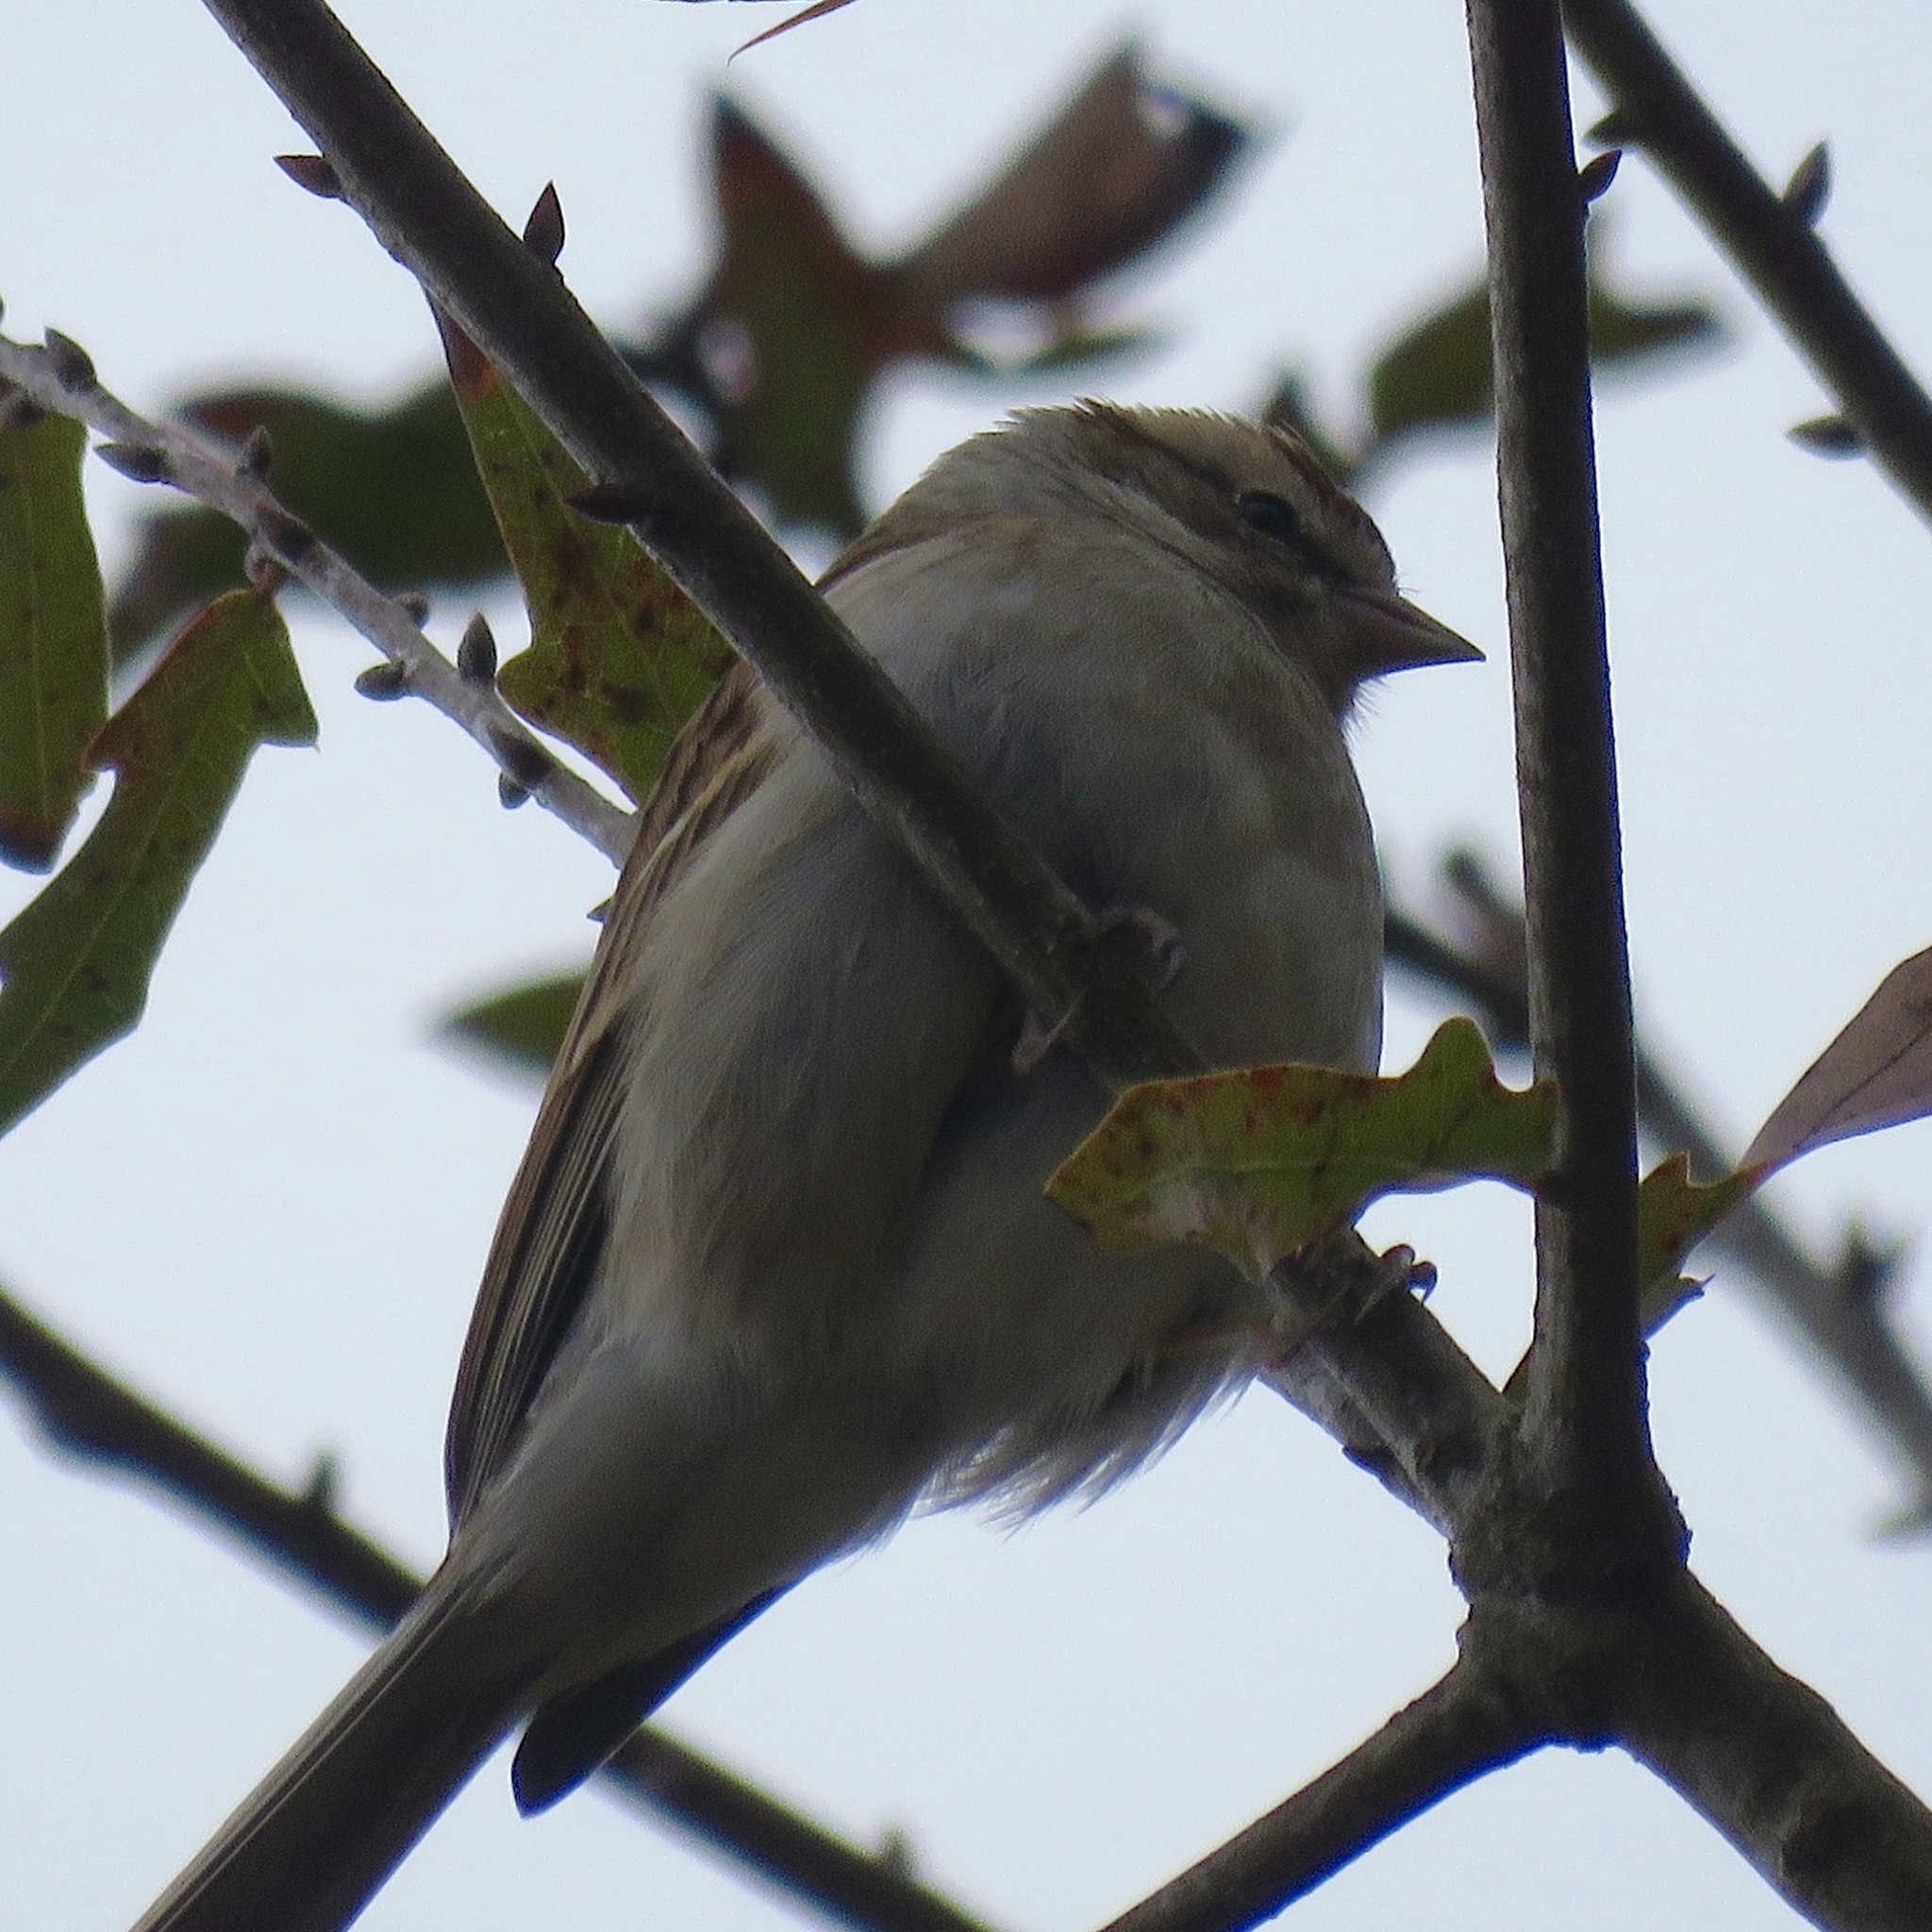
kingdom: Animalia
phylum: Chordata
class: Aves
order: Passeriformes
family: Passerellidae
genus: Spizella
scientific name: Spizella passerina
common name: Chipping sparrow
